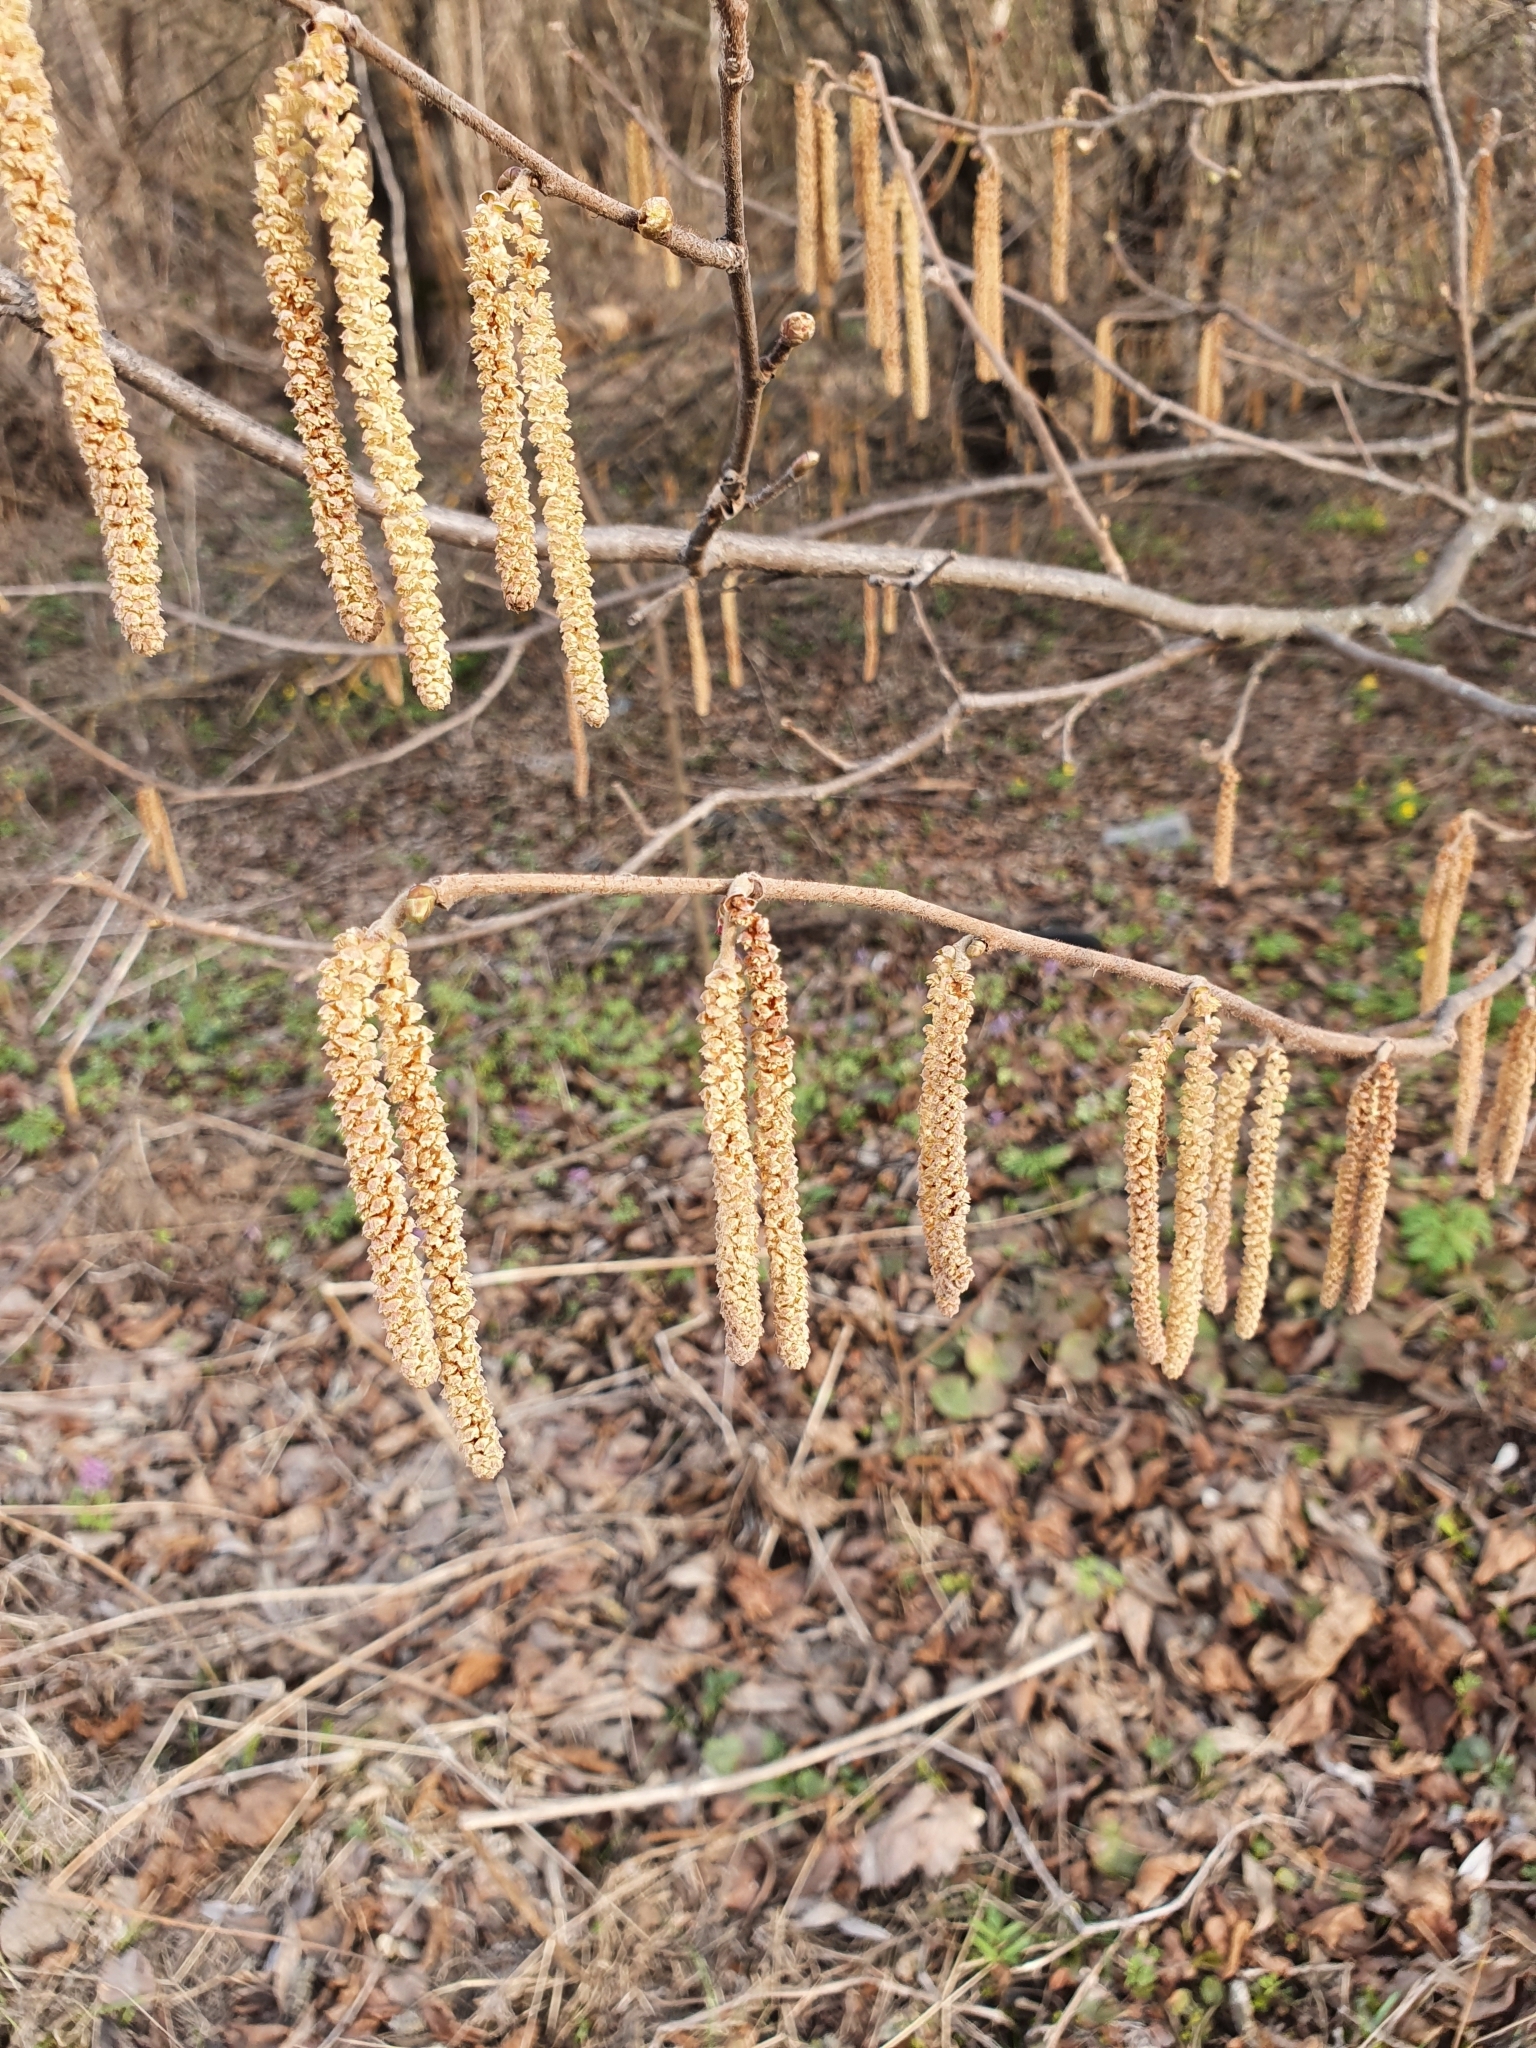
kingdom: Plantae
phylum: Tracheophyta
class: Magnoliopsida
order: Fagales
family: Betulaceae
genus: Corylus
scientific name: Corylus avellana
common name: European hazel
